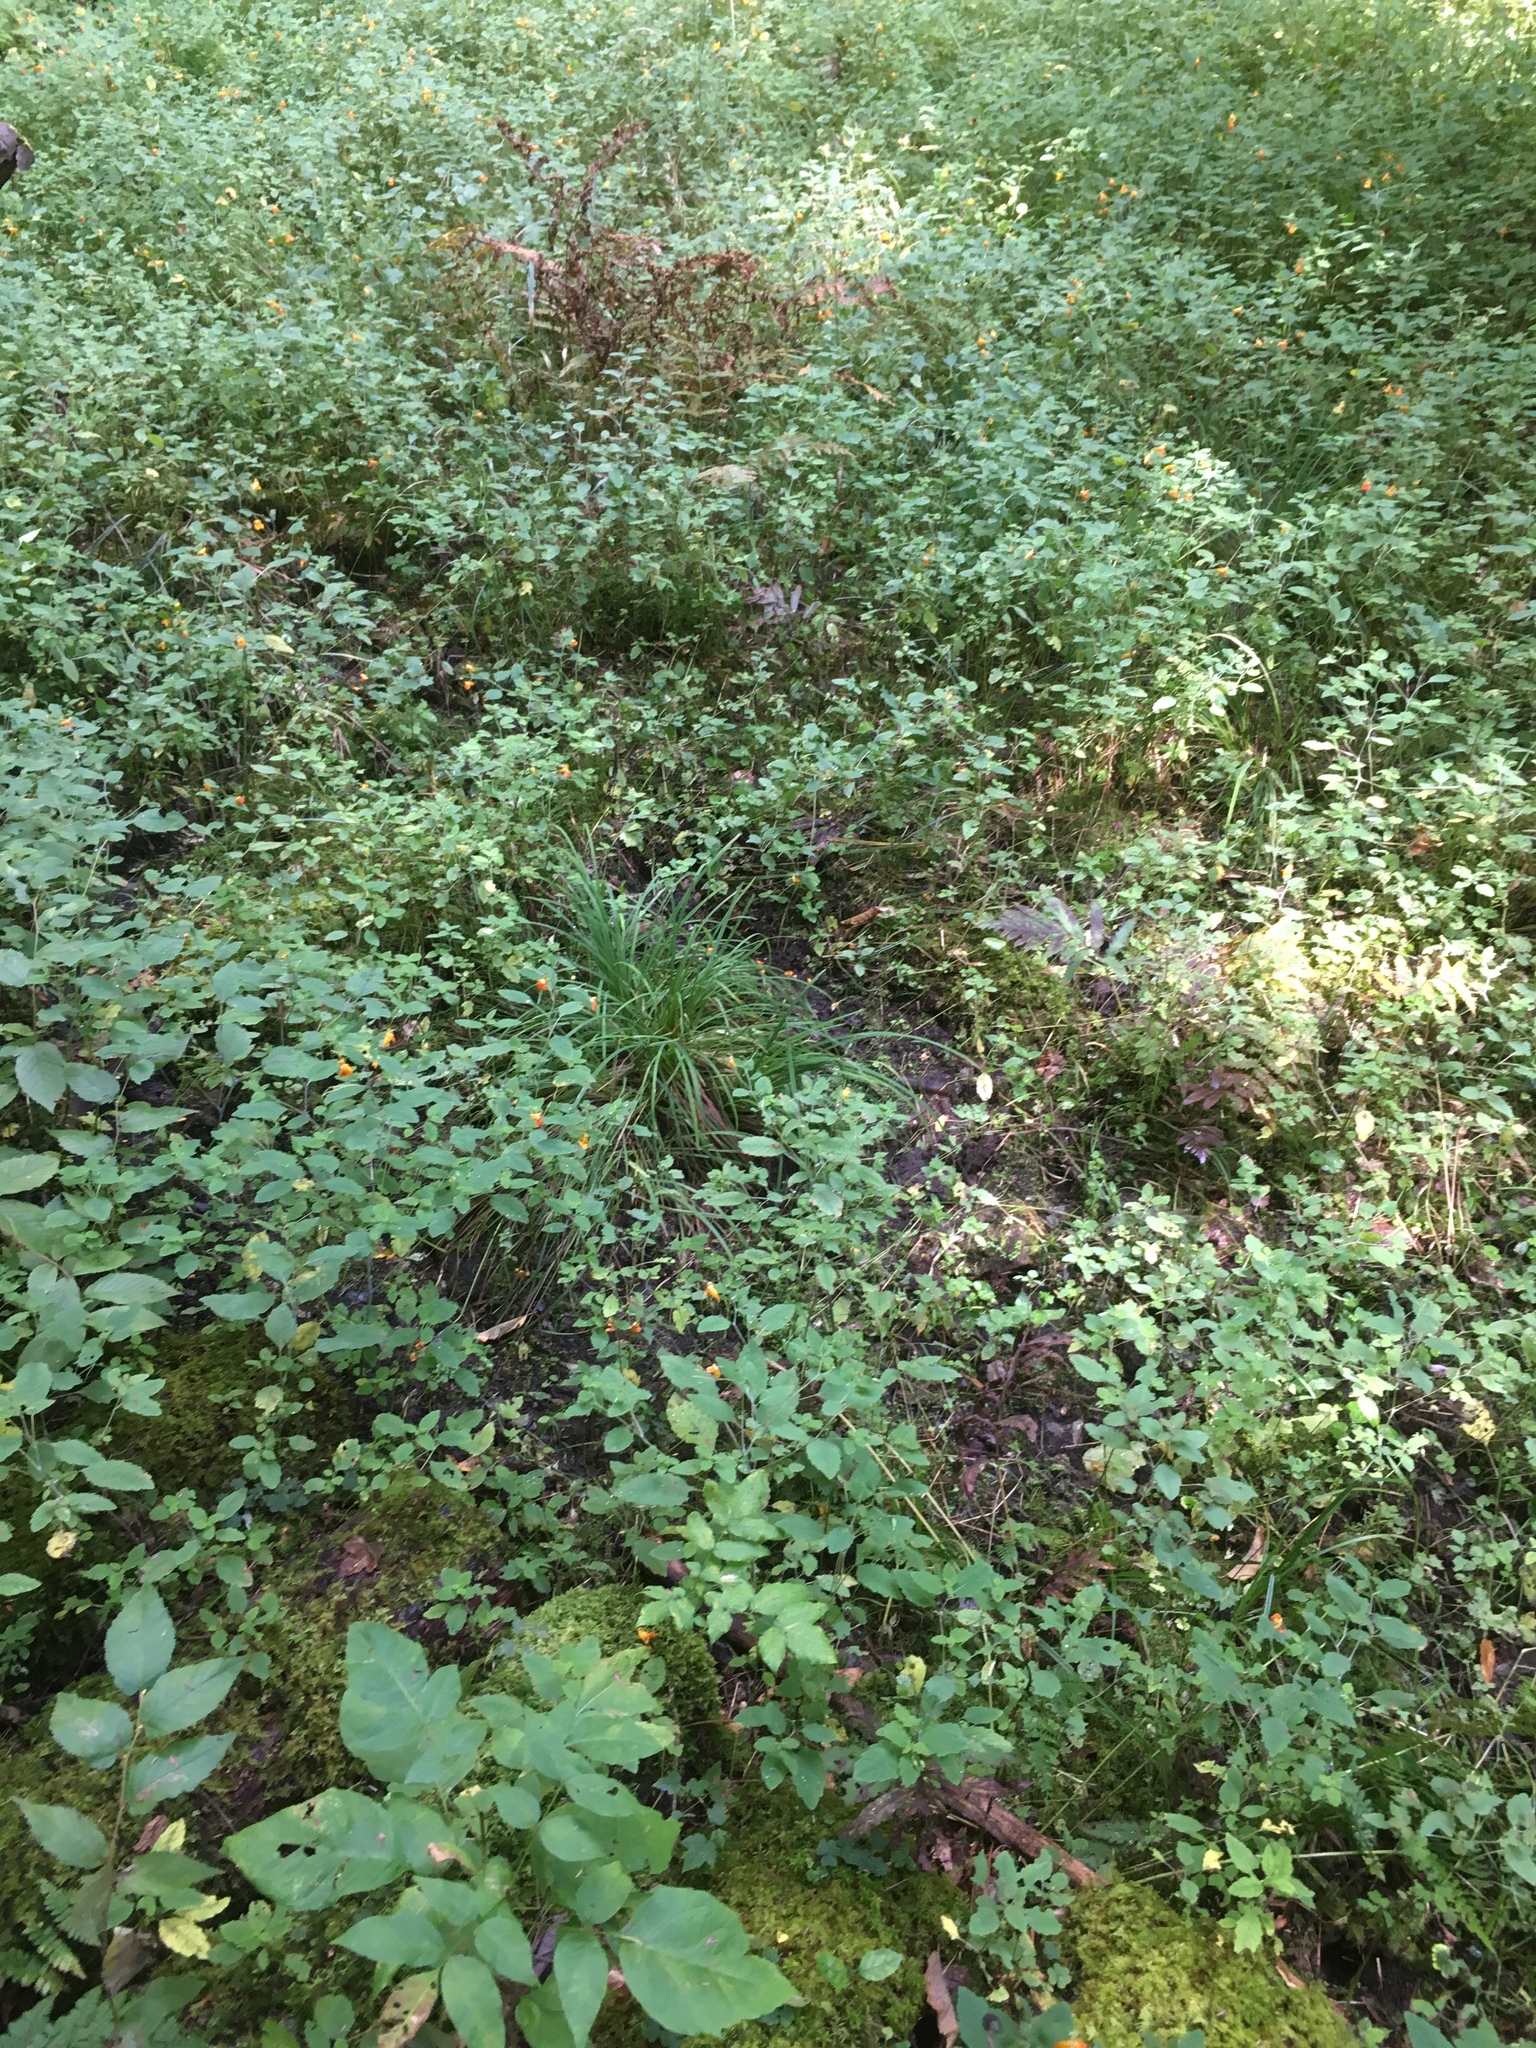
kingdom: Plantae
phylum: Tracheophyta
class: Magnoliopsida
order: Ericales
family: Balsaminaceae
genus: Impatiens
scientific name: Impatiens capensis
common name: Orange balsam
